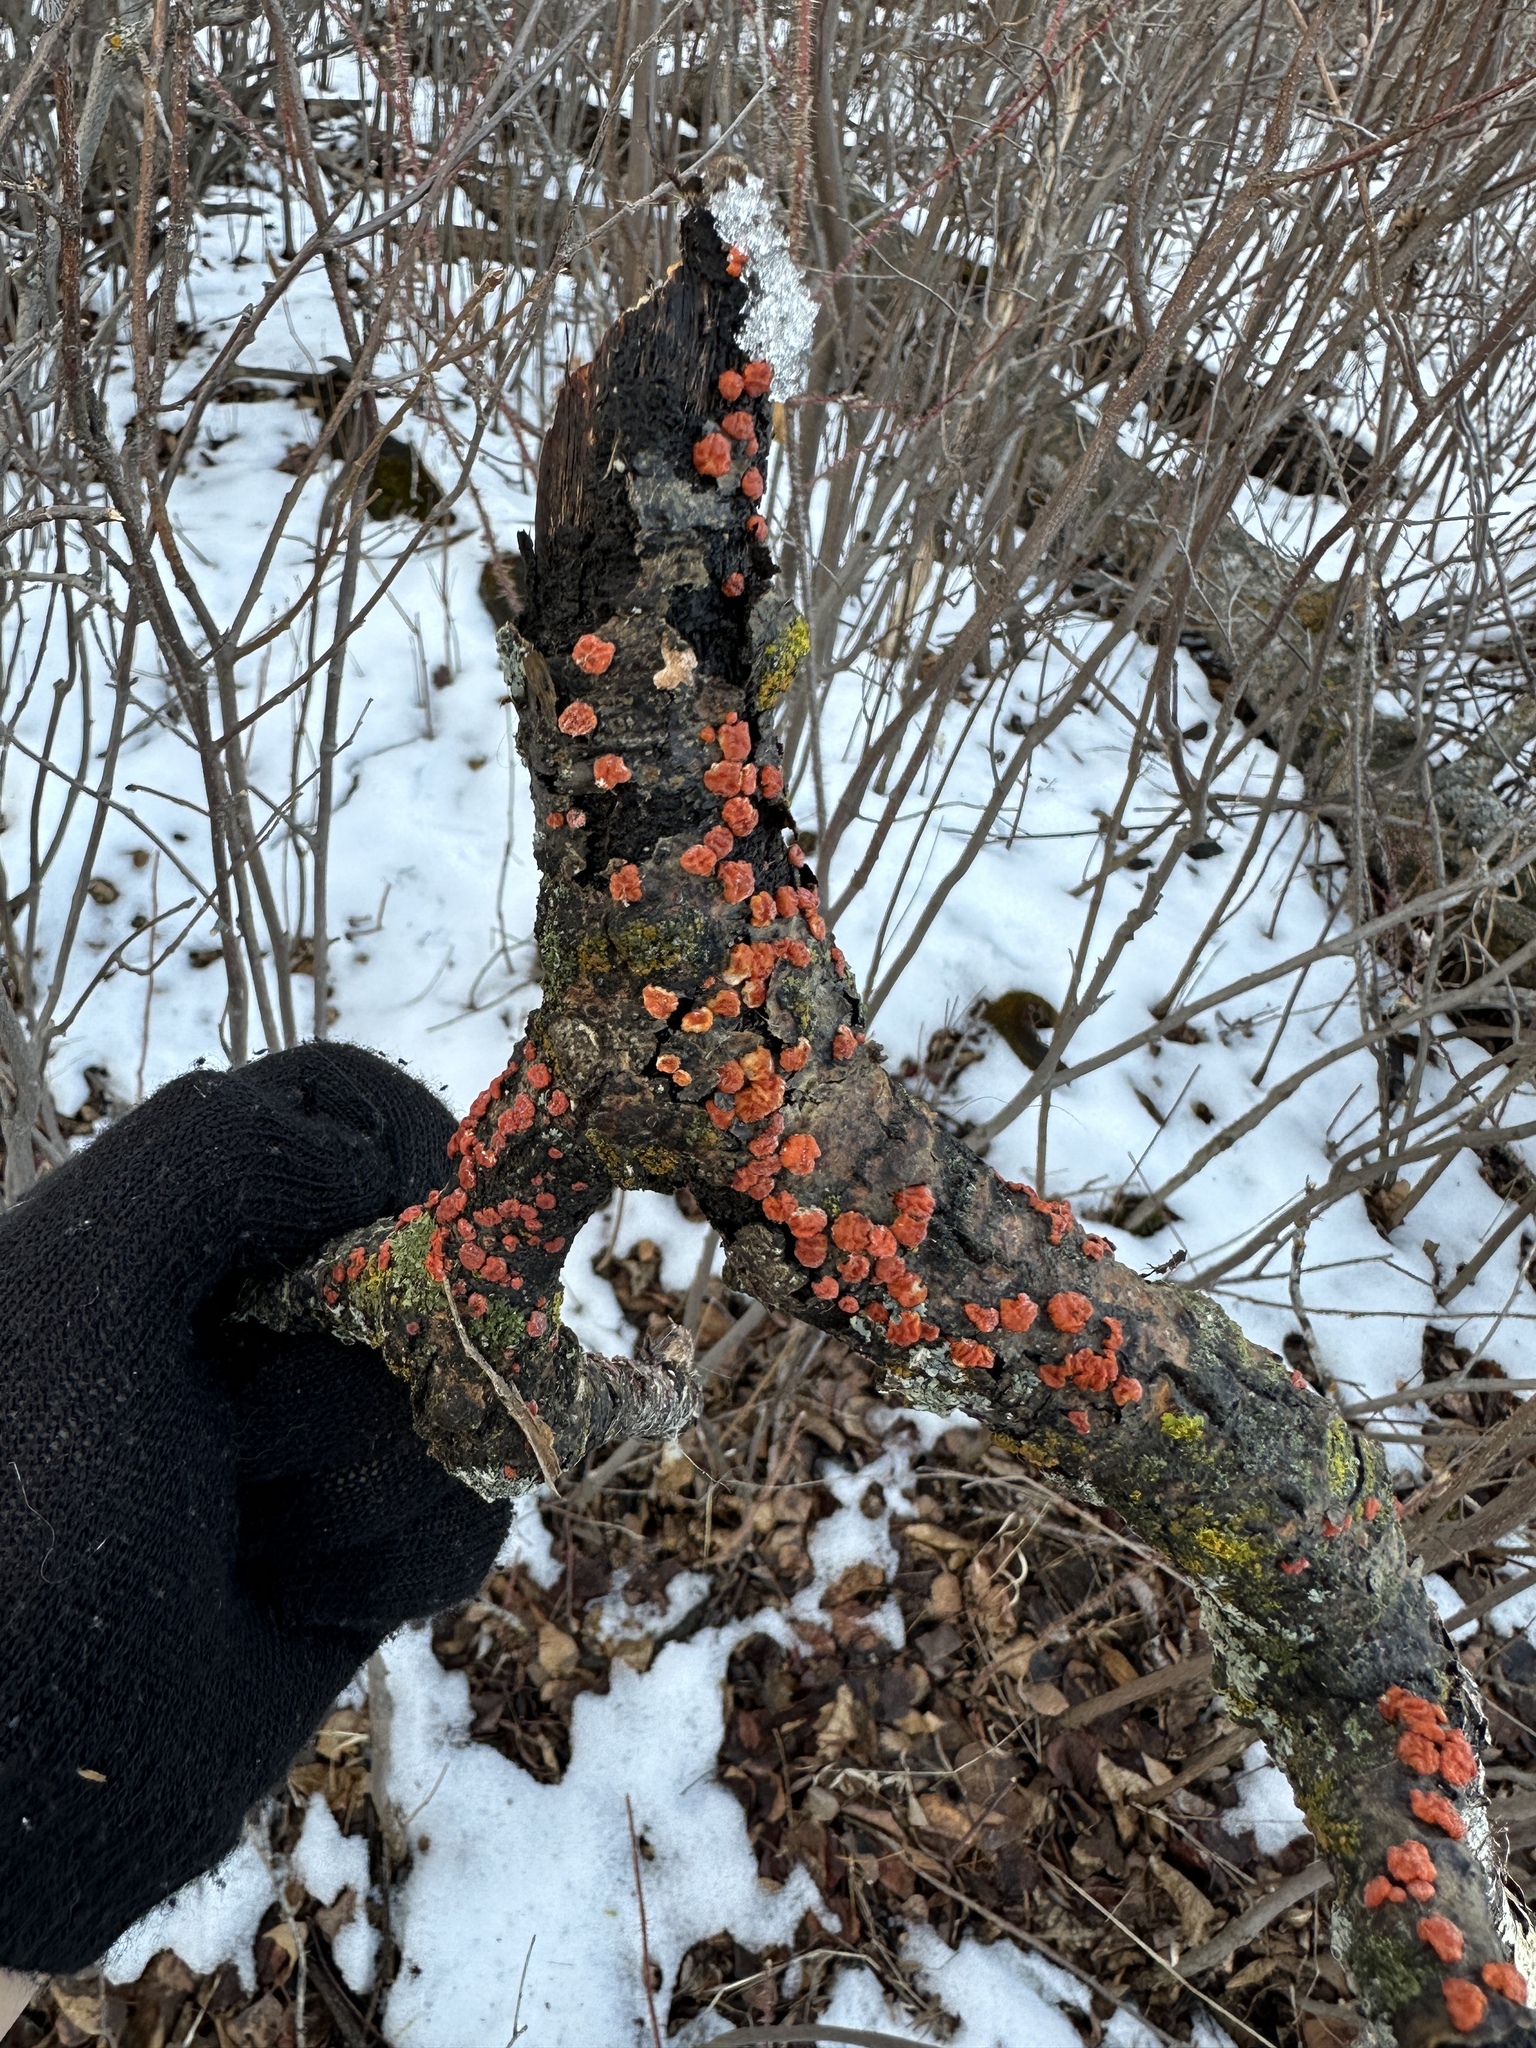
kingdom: Fungi
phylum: Basidiomycota
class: Agaricomycetes
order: Russulales
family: Peniophoraceae
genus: Peniophora
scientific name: Peniophora rufa
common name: Red tree brain fungus
